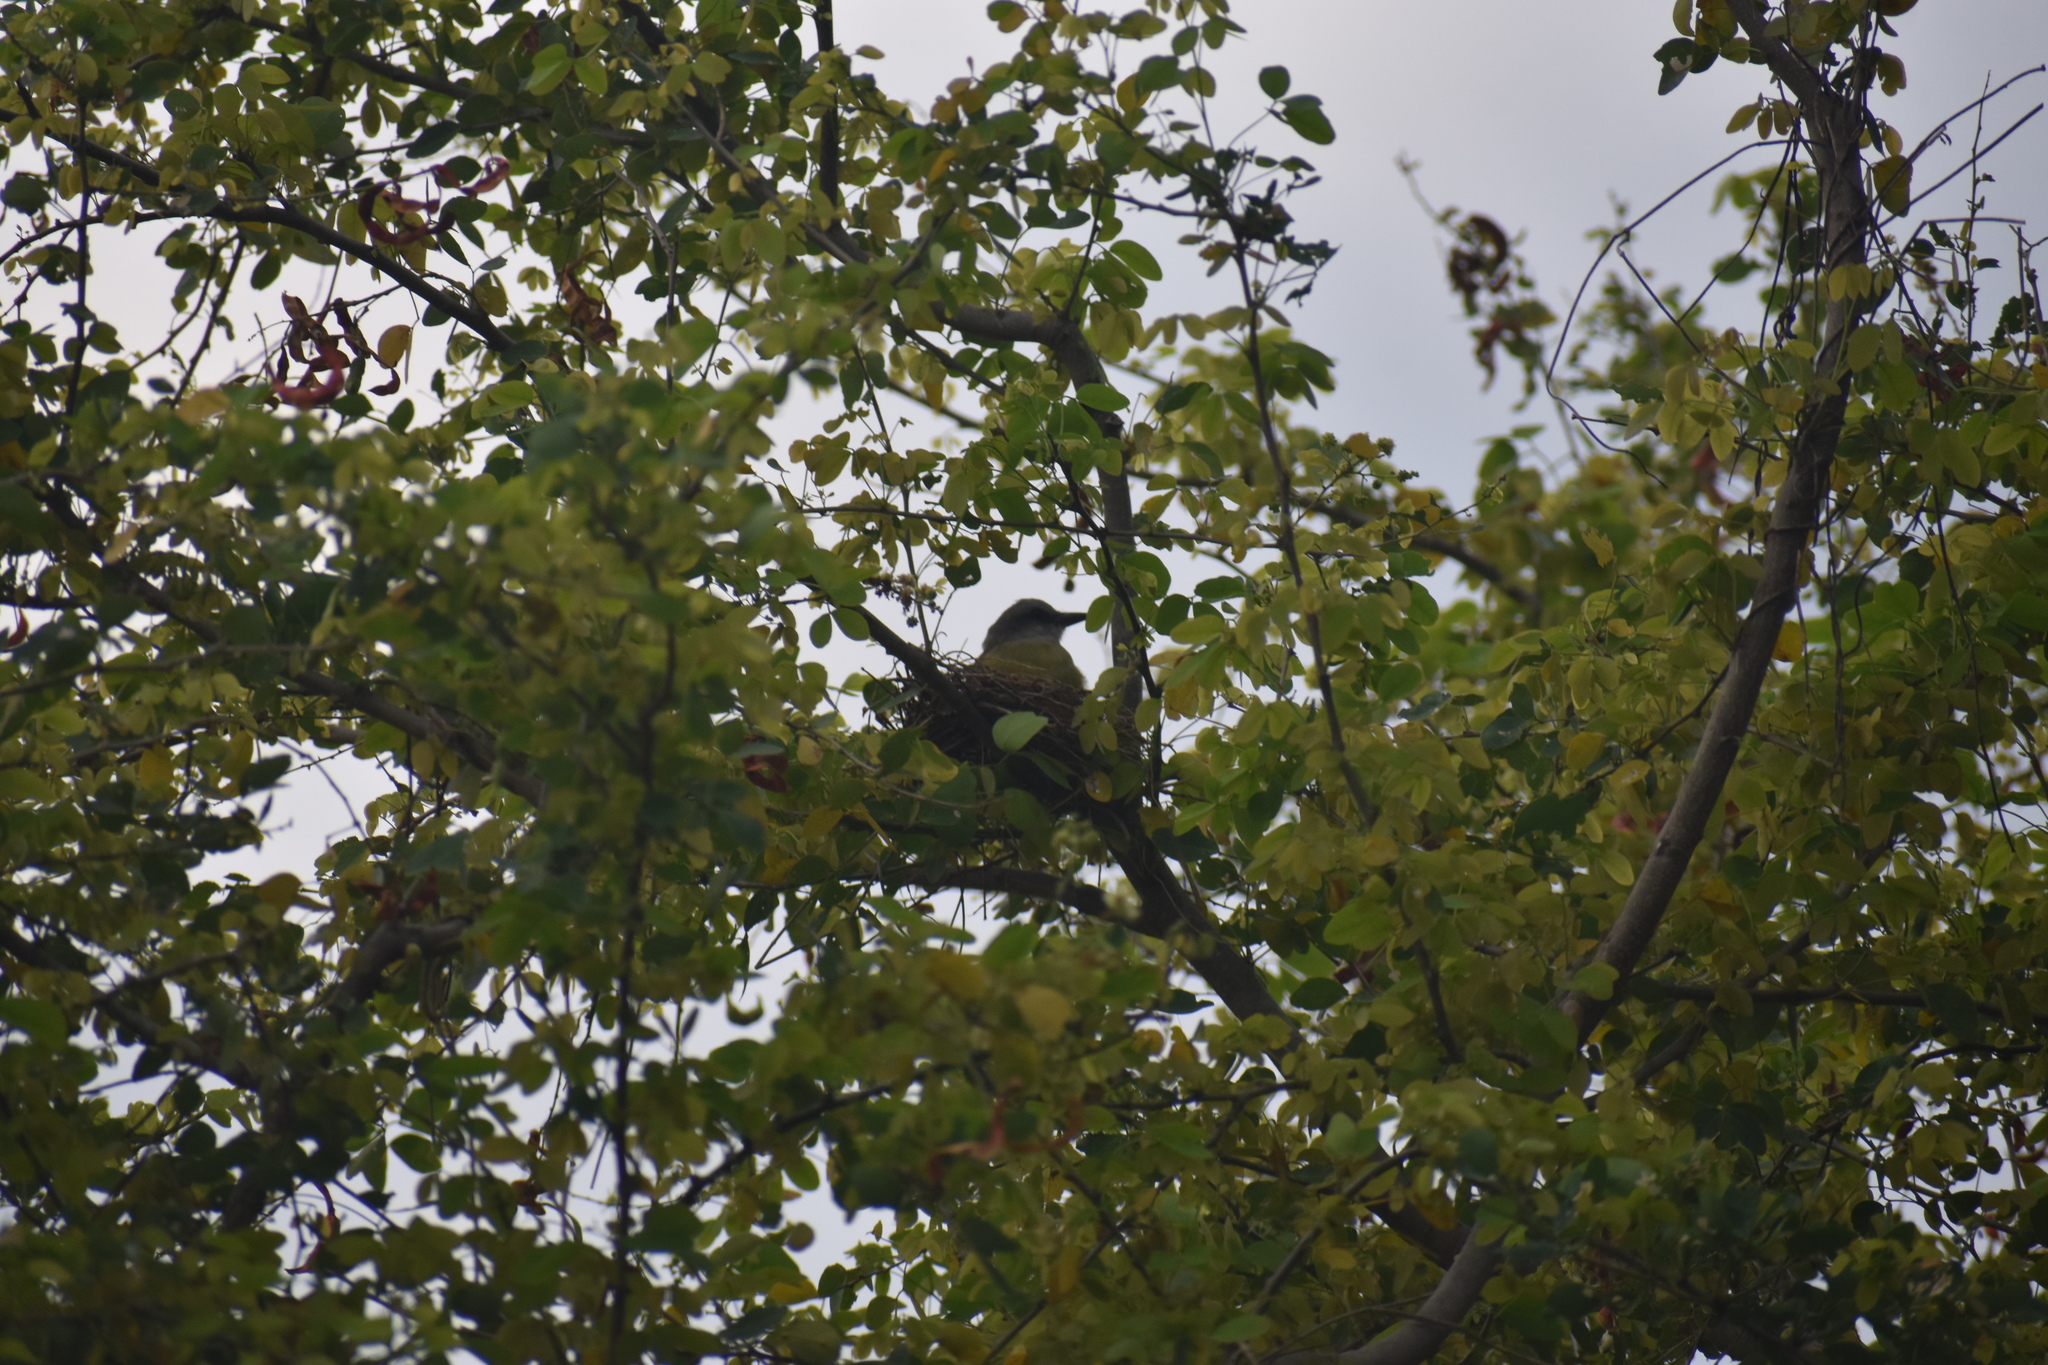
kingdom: Animalia
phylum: Chordata
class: Aves
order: Passeriformes
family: Tyrannidae
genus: Tyrannus
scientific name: Tyrannus melancholicus
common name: Tropical kingbird
